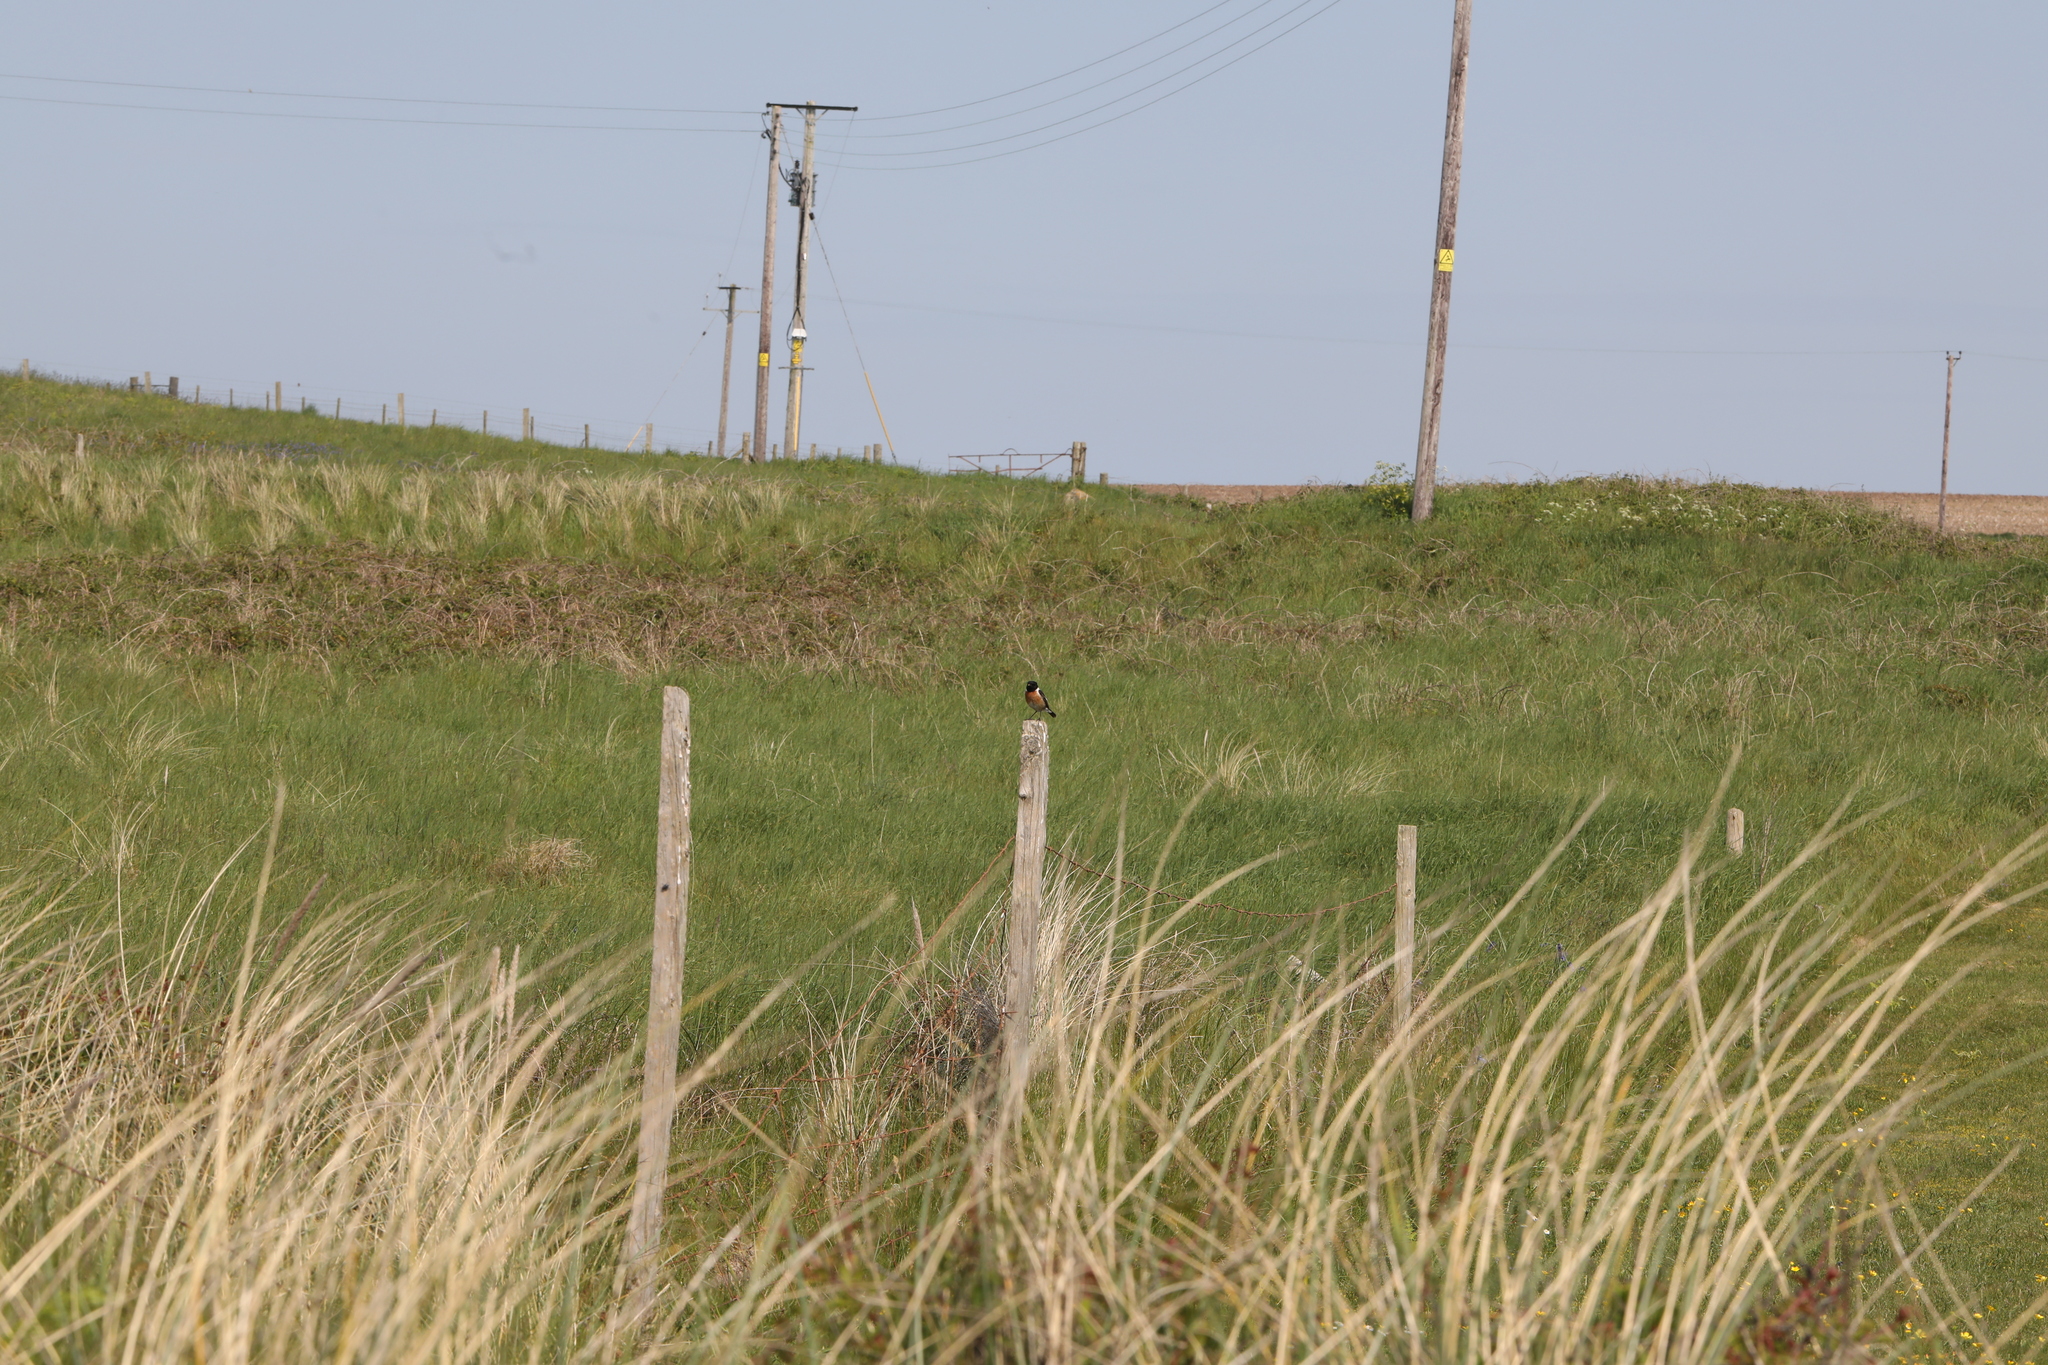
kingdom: Animalia
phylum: Chordata
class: Aves
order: Passeriformes
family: Muscicapidae
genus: Saxicola
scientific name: Saxicola rubicola
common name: European stonechat
